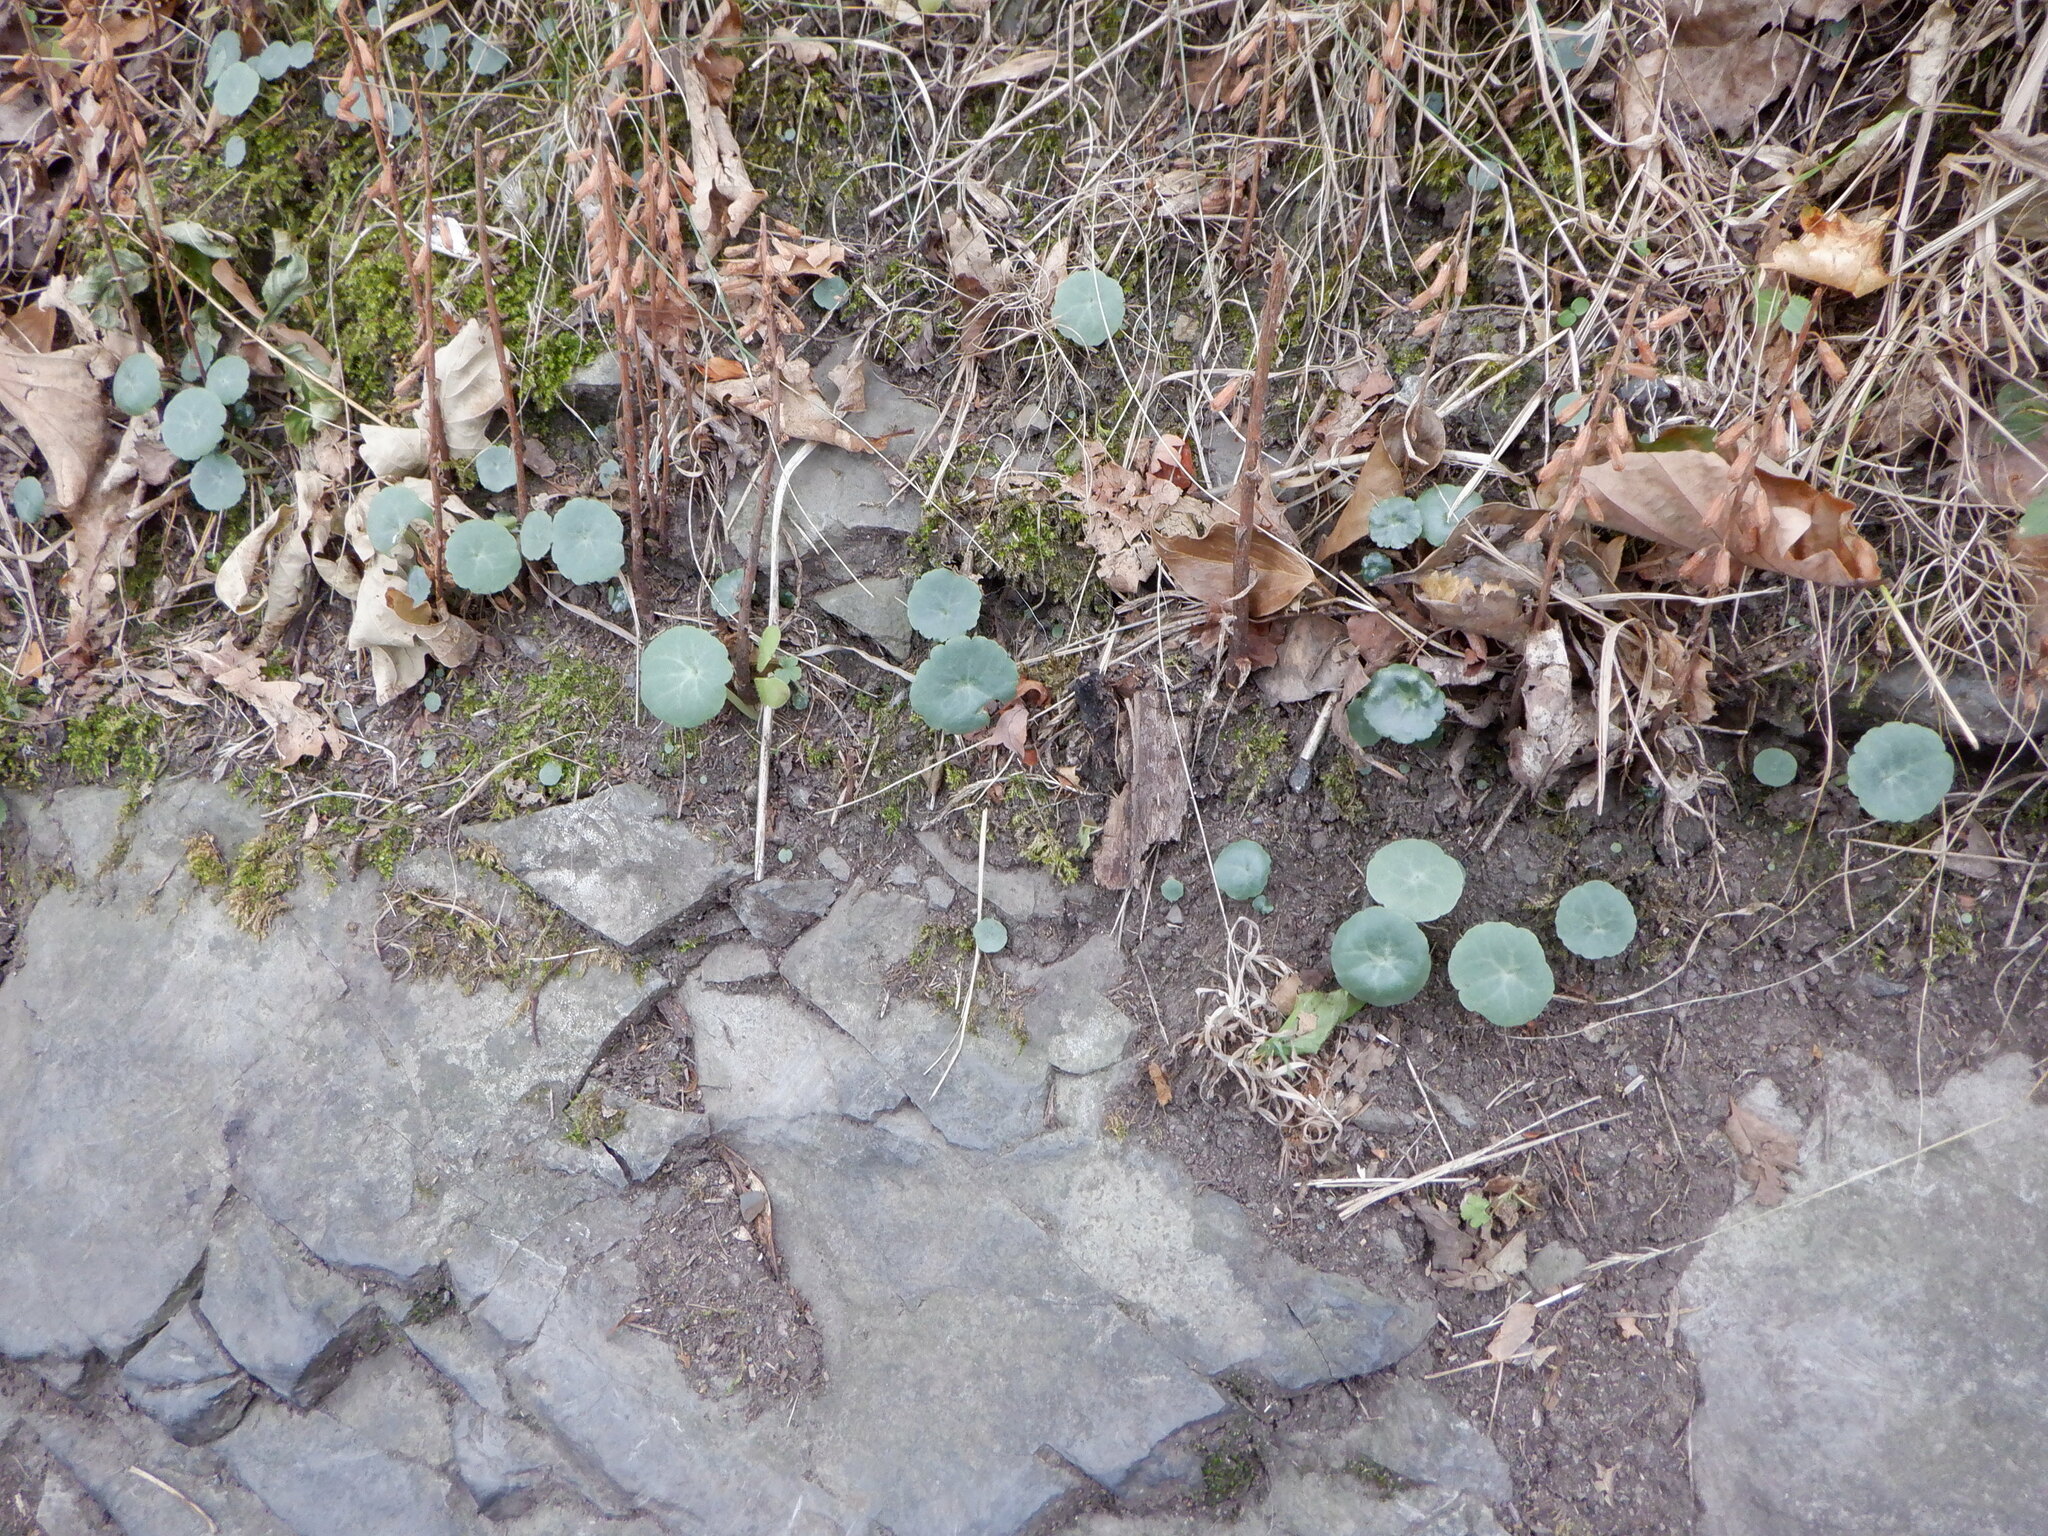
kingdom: Plantae
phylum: Tracheophyta
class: Magnoliopsida
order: Saxifragales
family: Crassulaceae
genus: Umbilicus
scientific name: Umbilicus rupestris
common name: Navelwort
